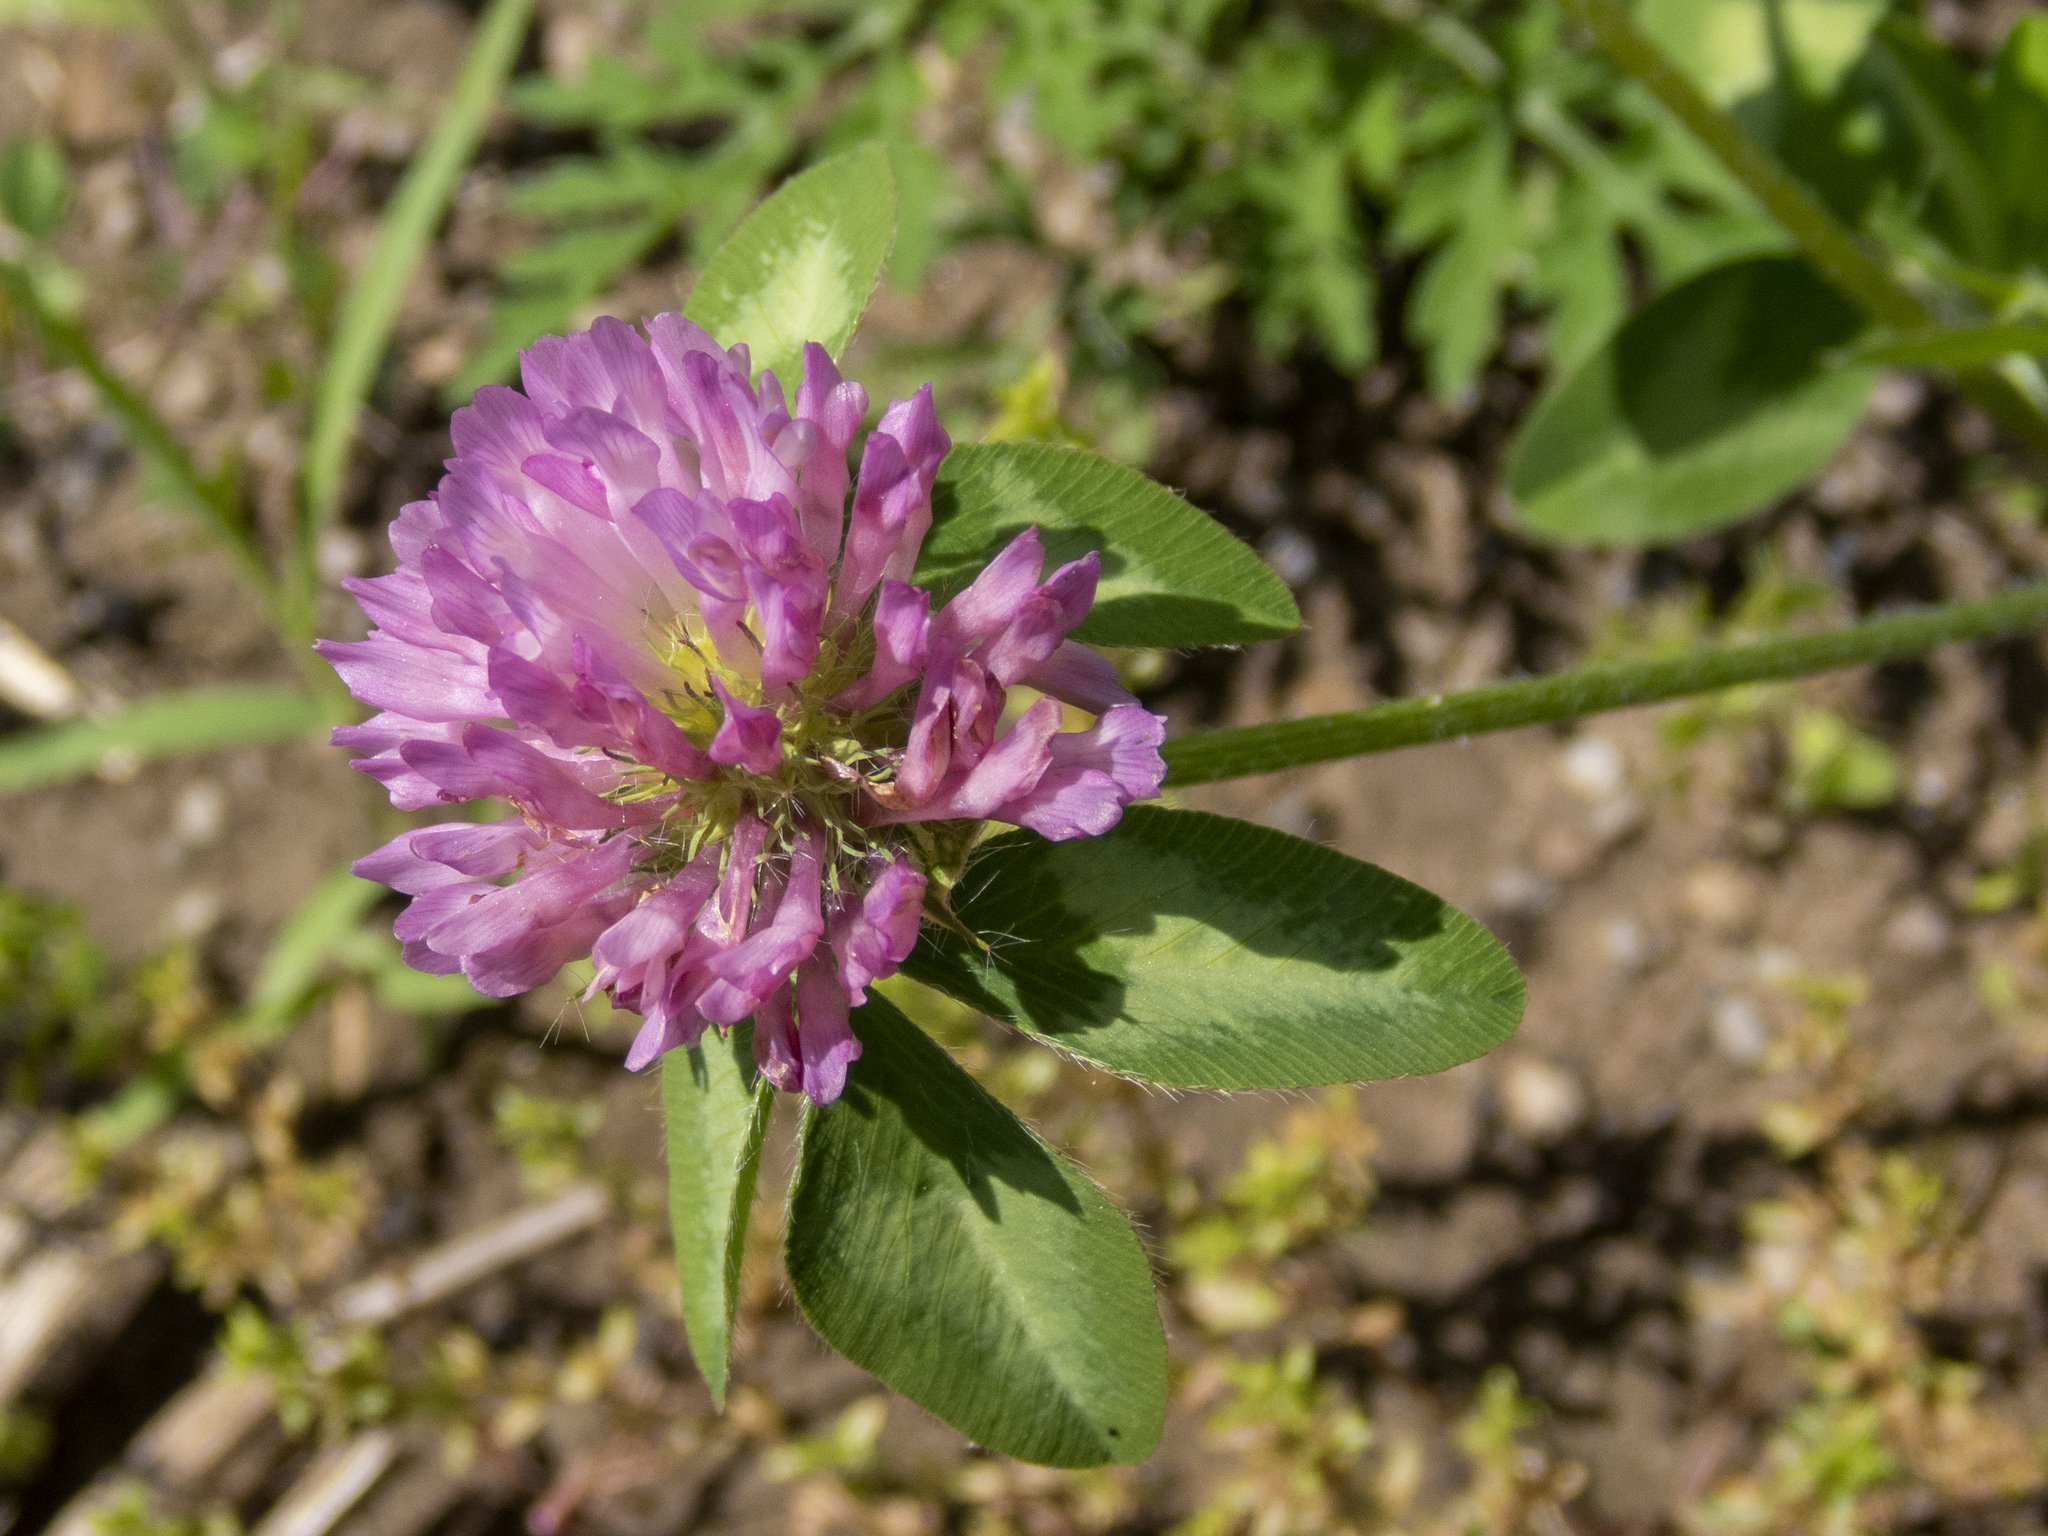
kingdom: Plantae
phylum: Tracheophyta
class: Magnoliopsida
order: Fabales
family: Fabaceae
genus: Trifolium
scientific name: Trifolium pratense
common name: Red clover
